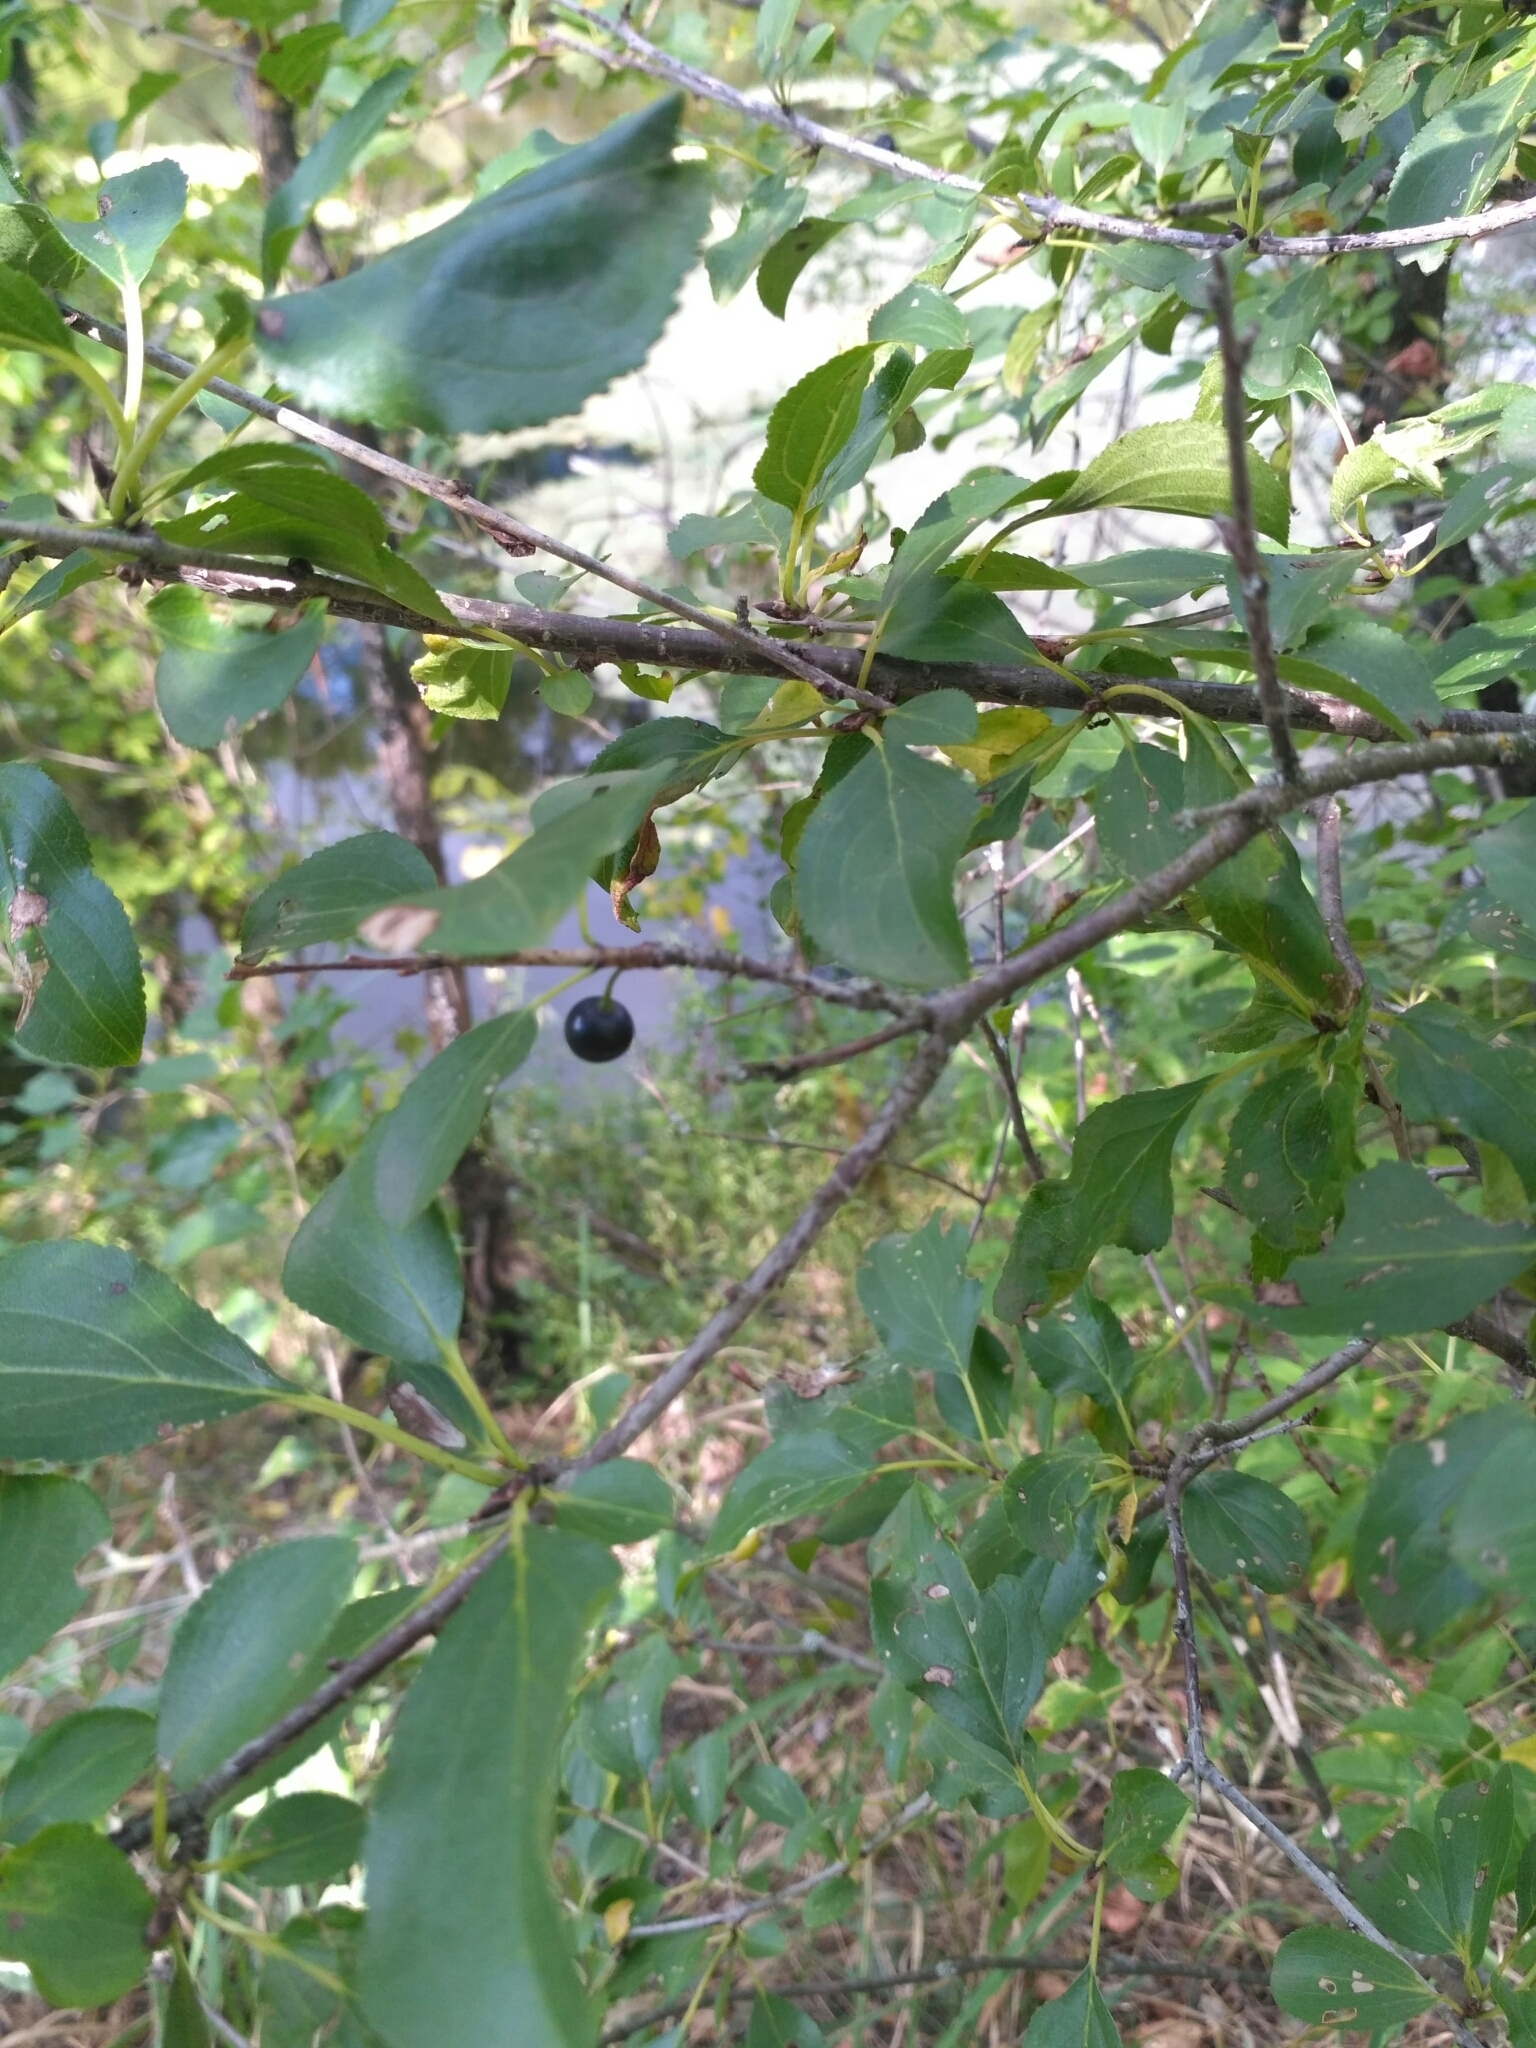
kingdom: Plantae
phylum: Tracheophyta
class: Magnoliopsida
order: Rosales
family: Rhamnaceae
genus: Rhamnus
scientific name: Rhamnus cathartica
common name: Common buckthorn
